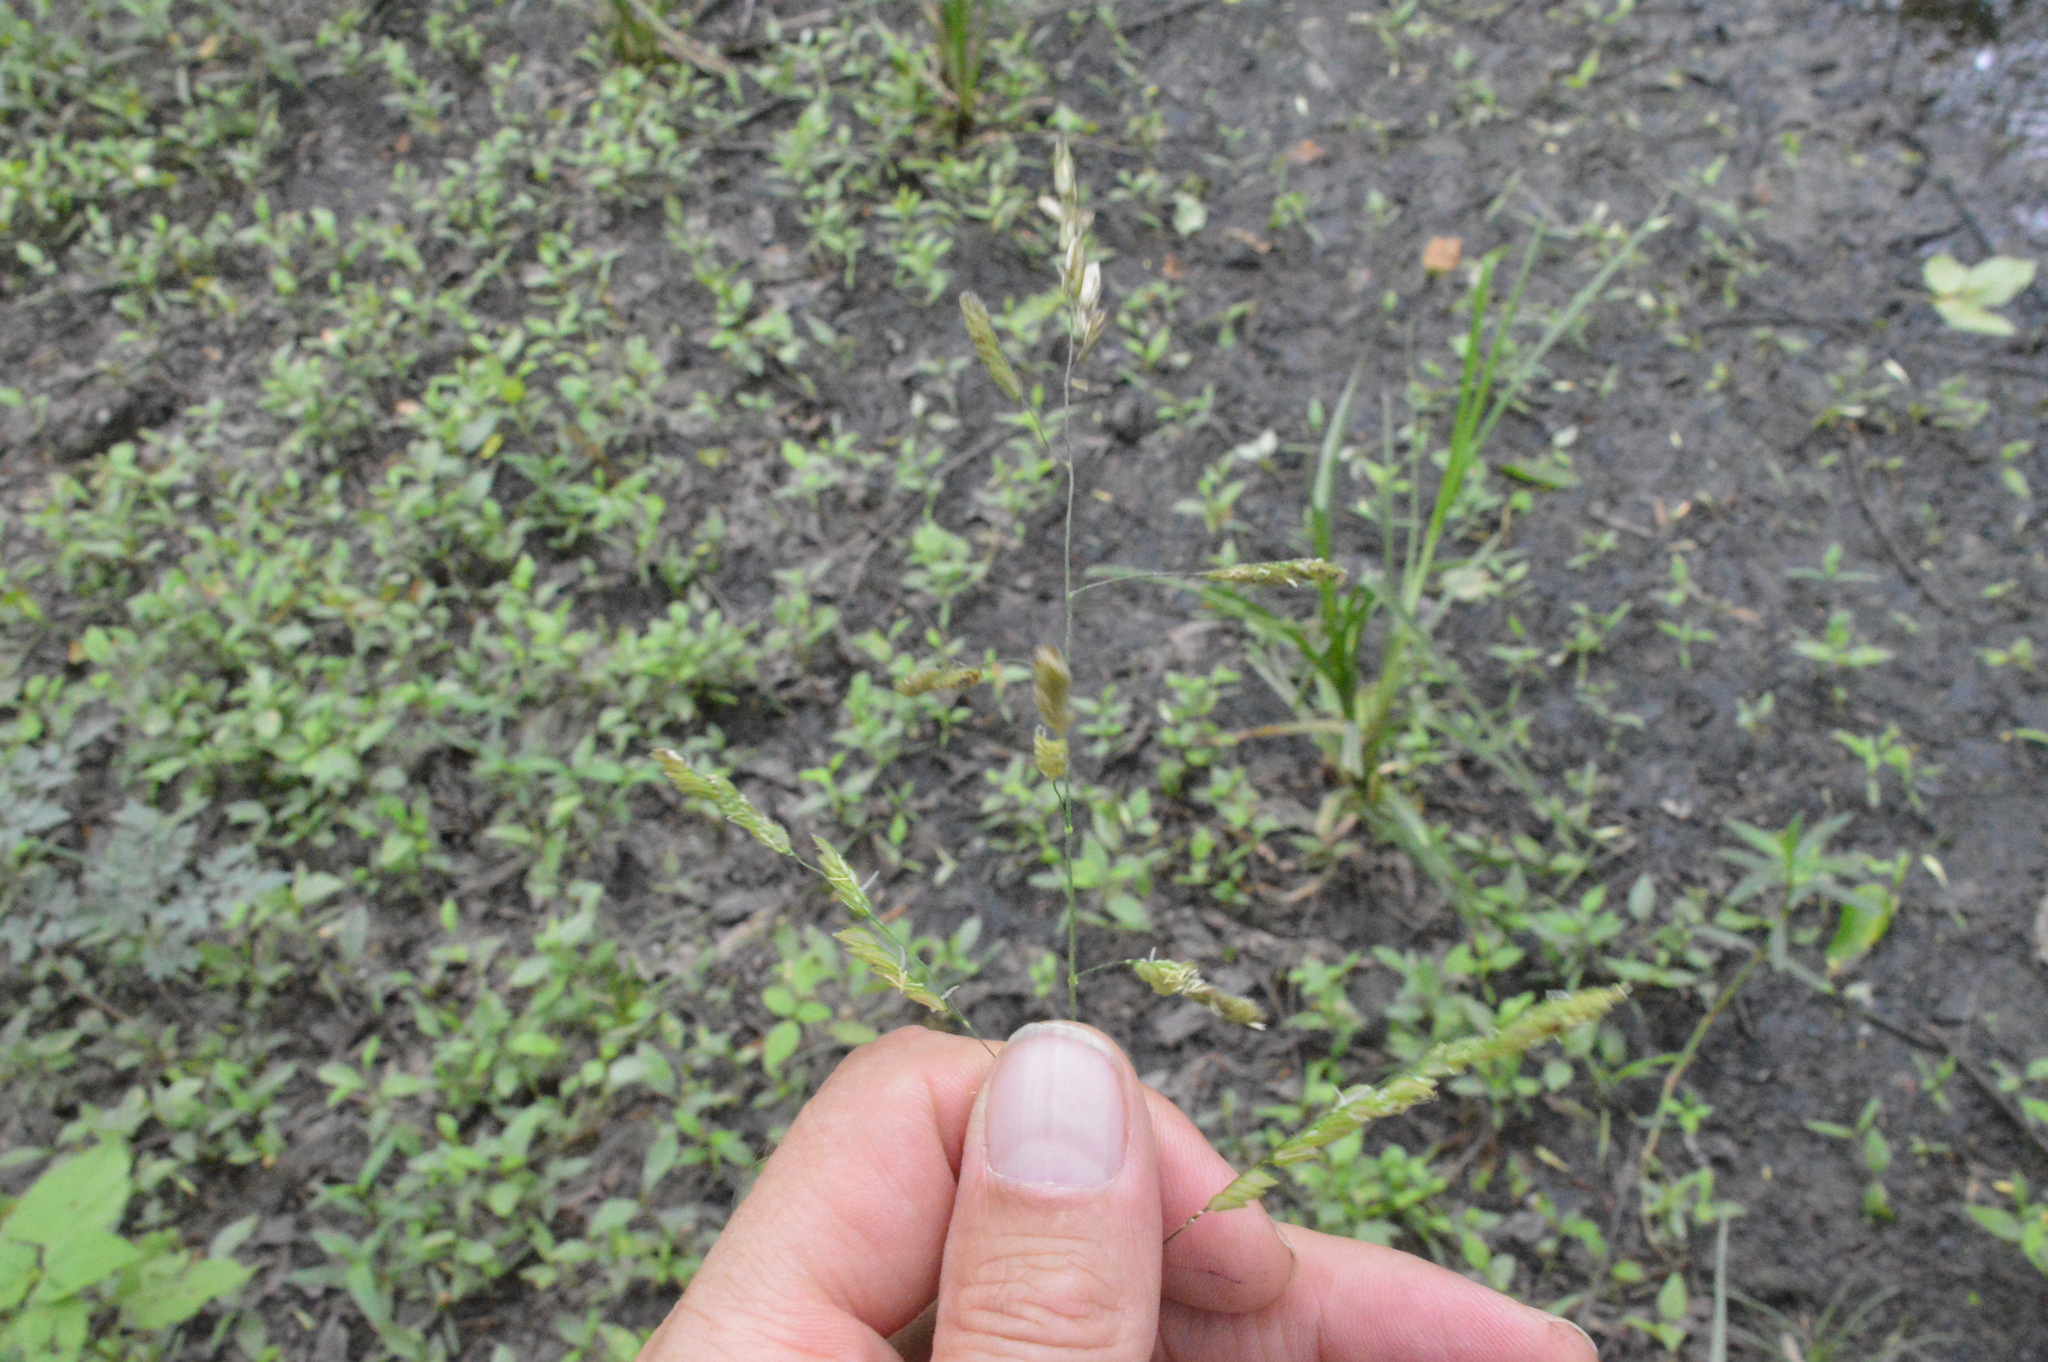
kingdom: Plantae
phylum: Tracheophyta
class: Liliopsida
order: Poales
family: Poaceae
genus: Leersia
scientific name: Leersia lenticularis
